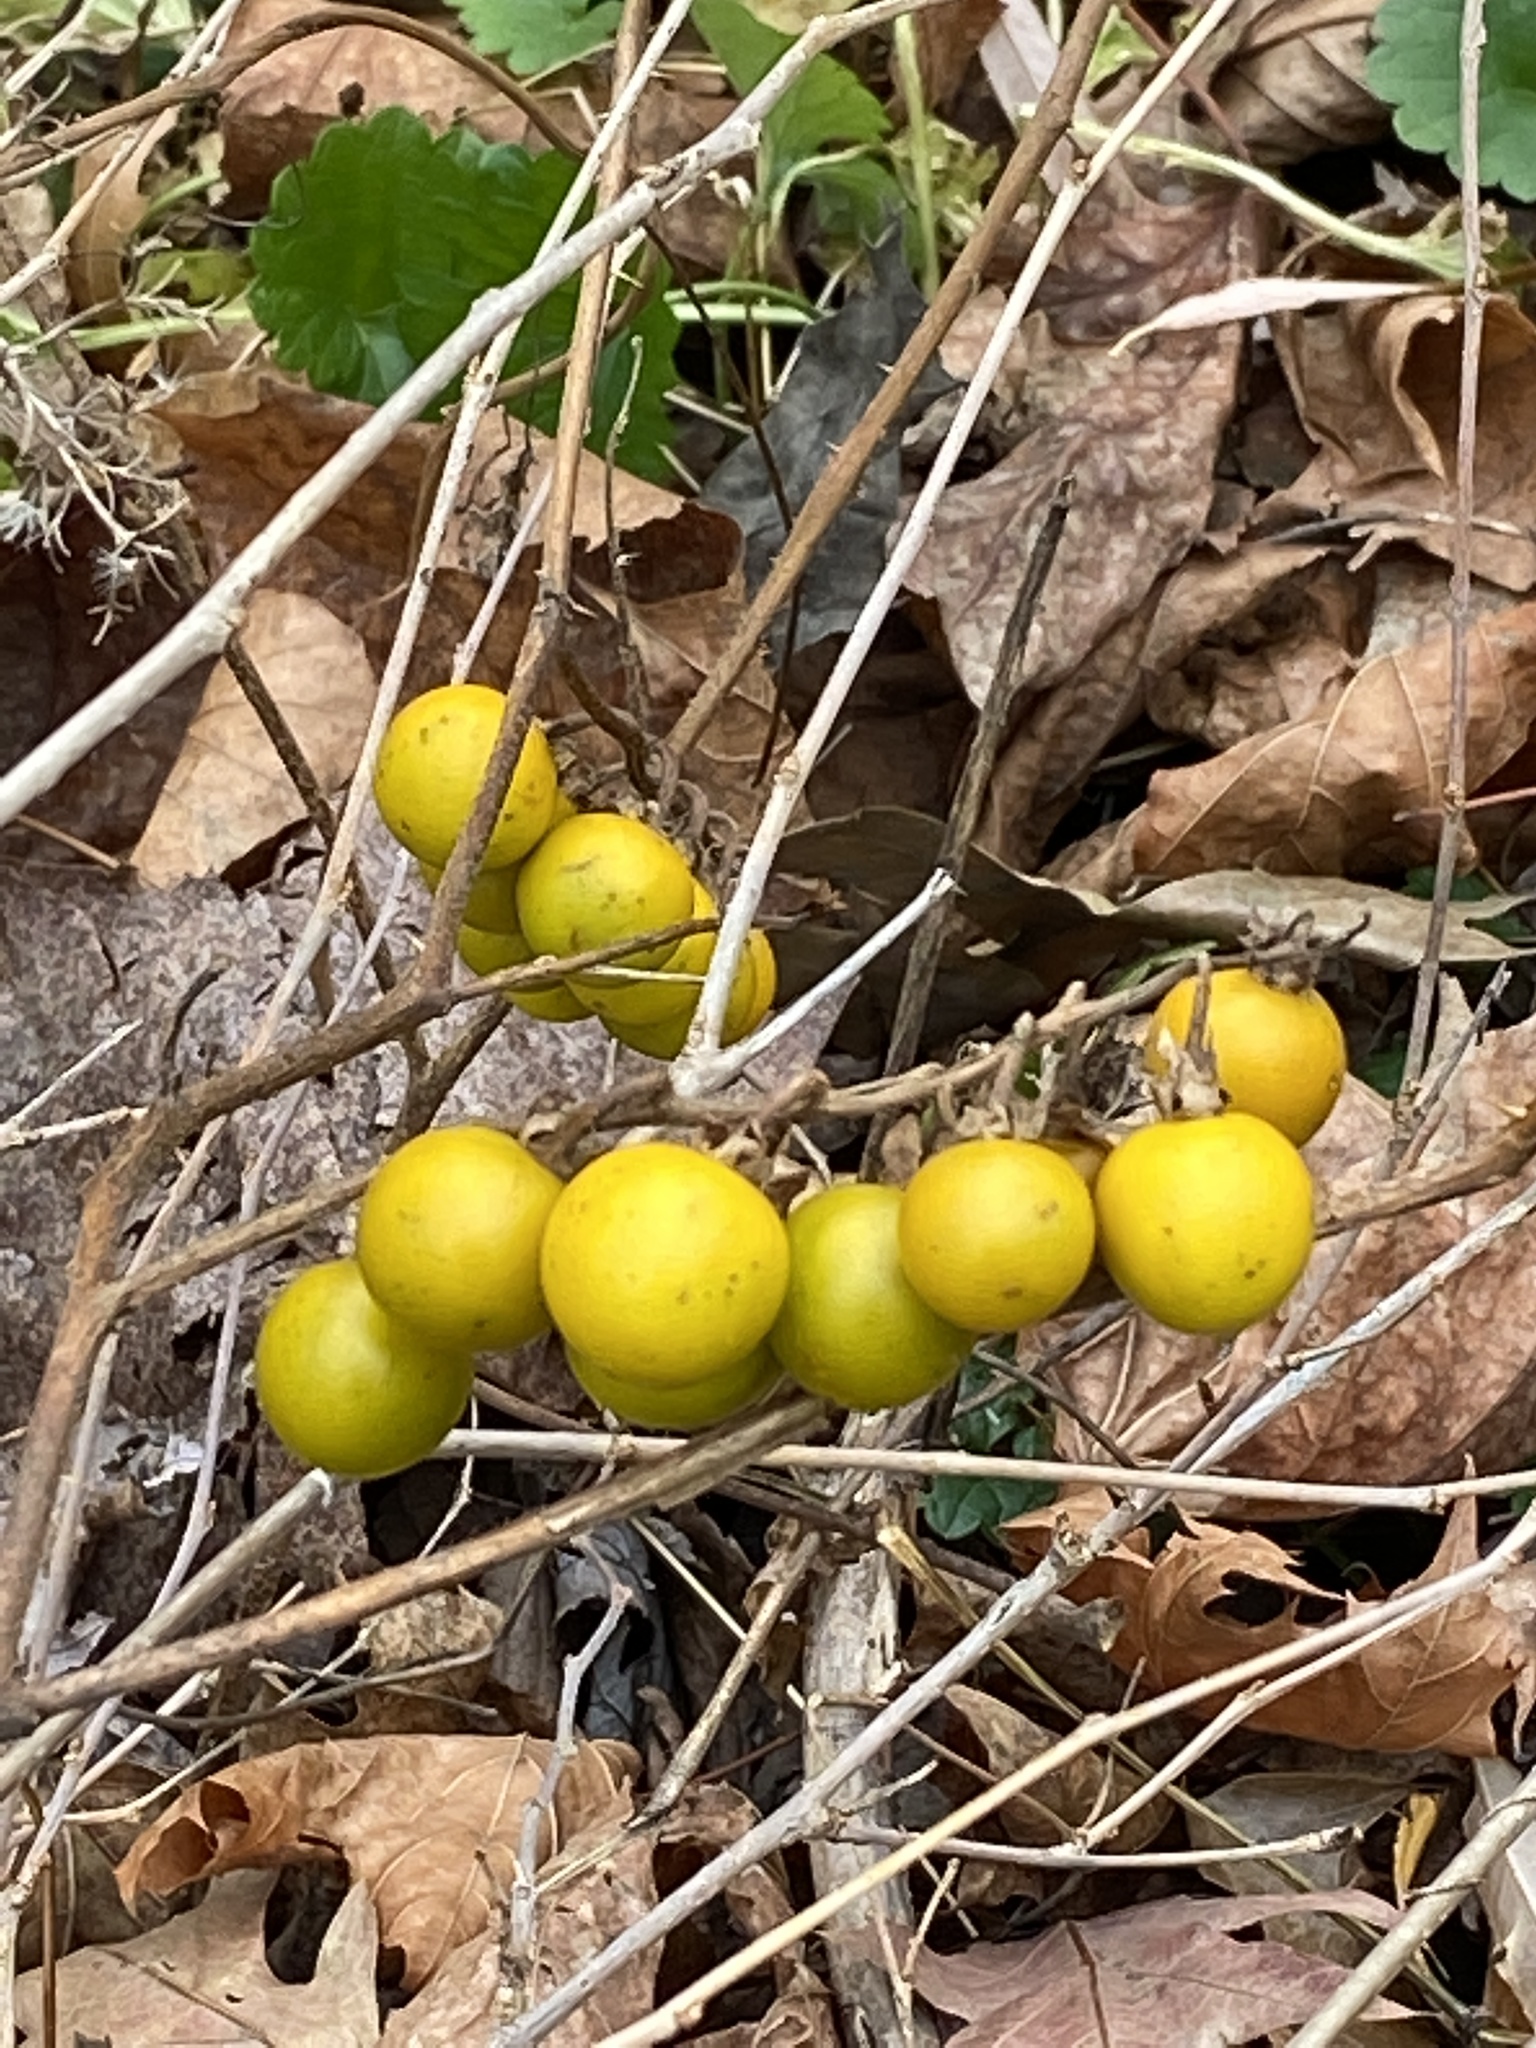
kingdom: Plantae
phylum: Tracheophyta
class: Magnoliopsida
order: Solanales
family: Solanaceae
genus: Solanum
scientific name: Solanum carolinense
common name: Horse-nettle
